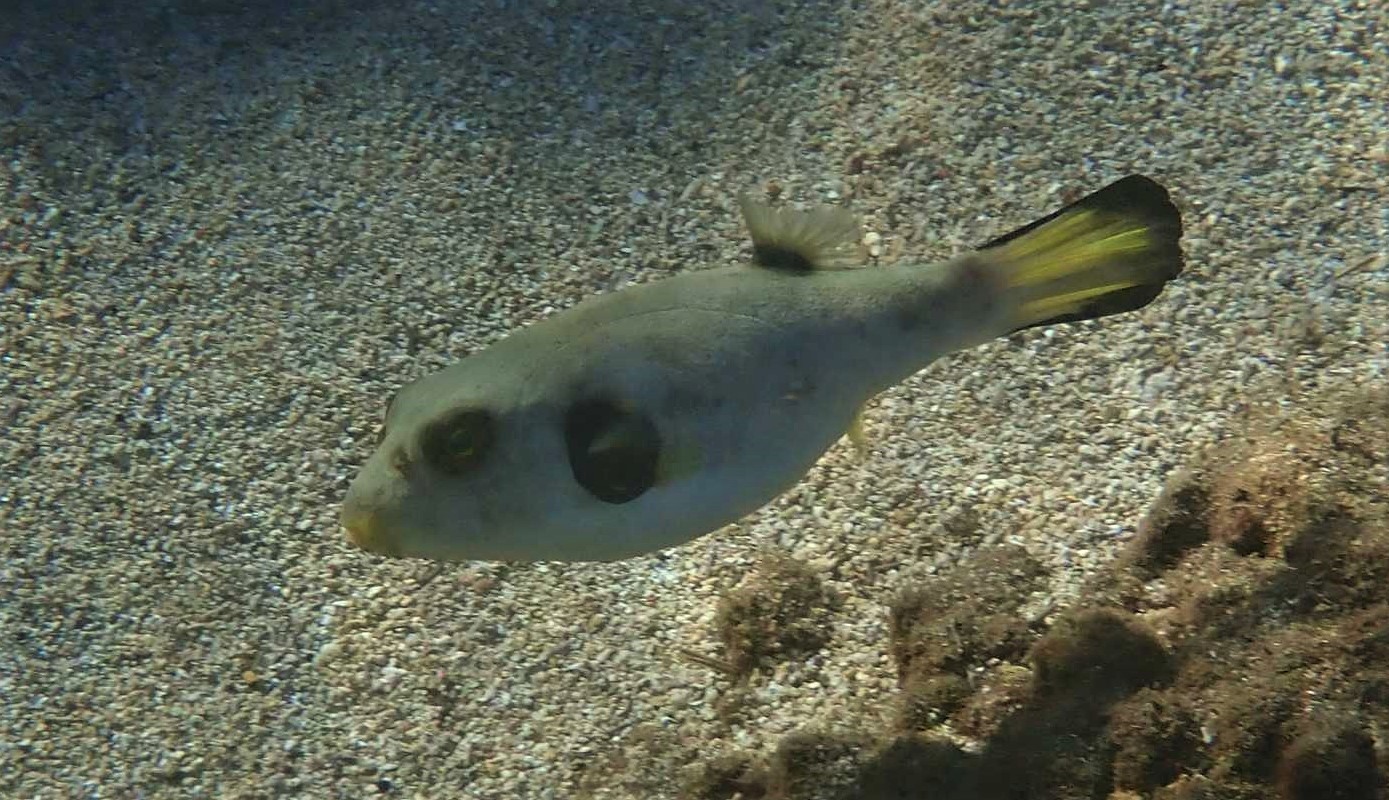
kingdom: Animalia
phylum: Chordata
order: Tetraodontiformes
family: Tetraodontidae
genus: Arothron
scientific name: Arothron immaculatus
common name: Blackedged blaasop
